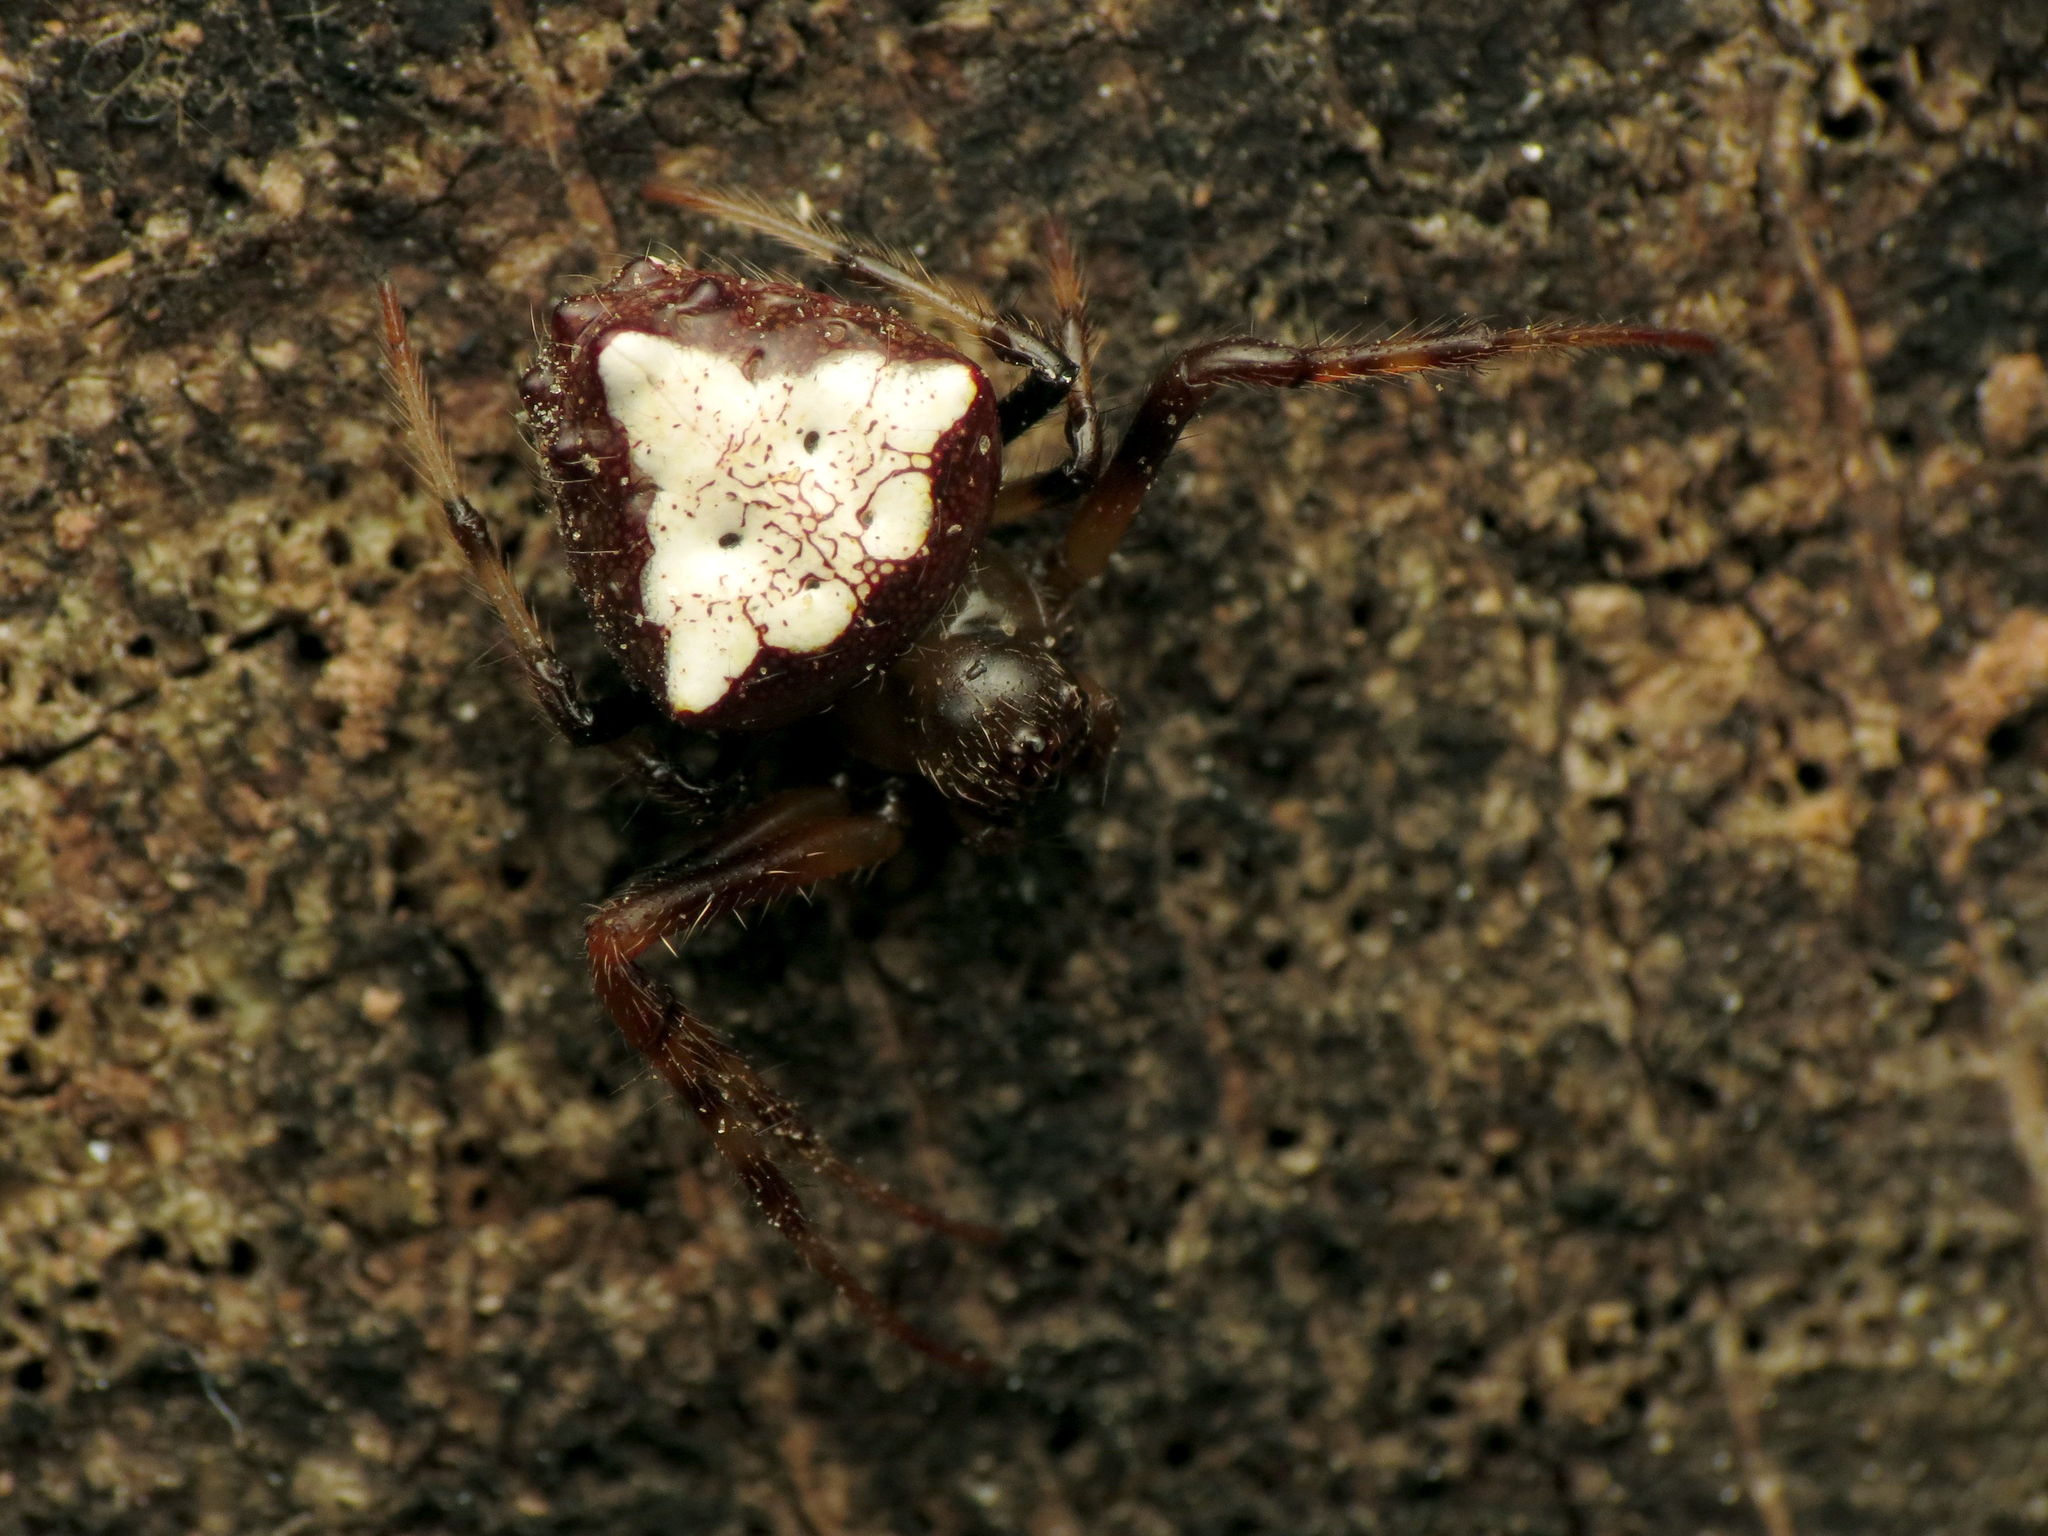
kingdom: Animalia
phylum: Arthropoda
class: Arachnida
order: Araneae
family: Araneidae
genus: Verrucosa
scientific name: Verrucosa arenata
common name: Orb weavers
